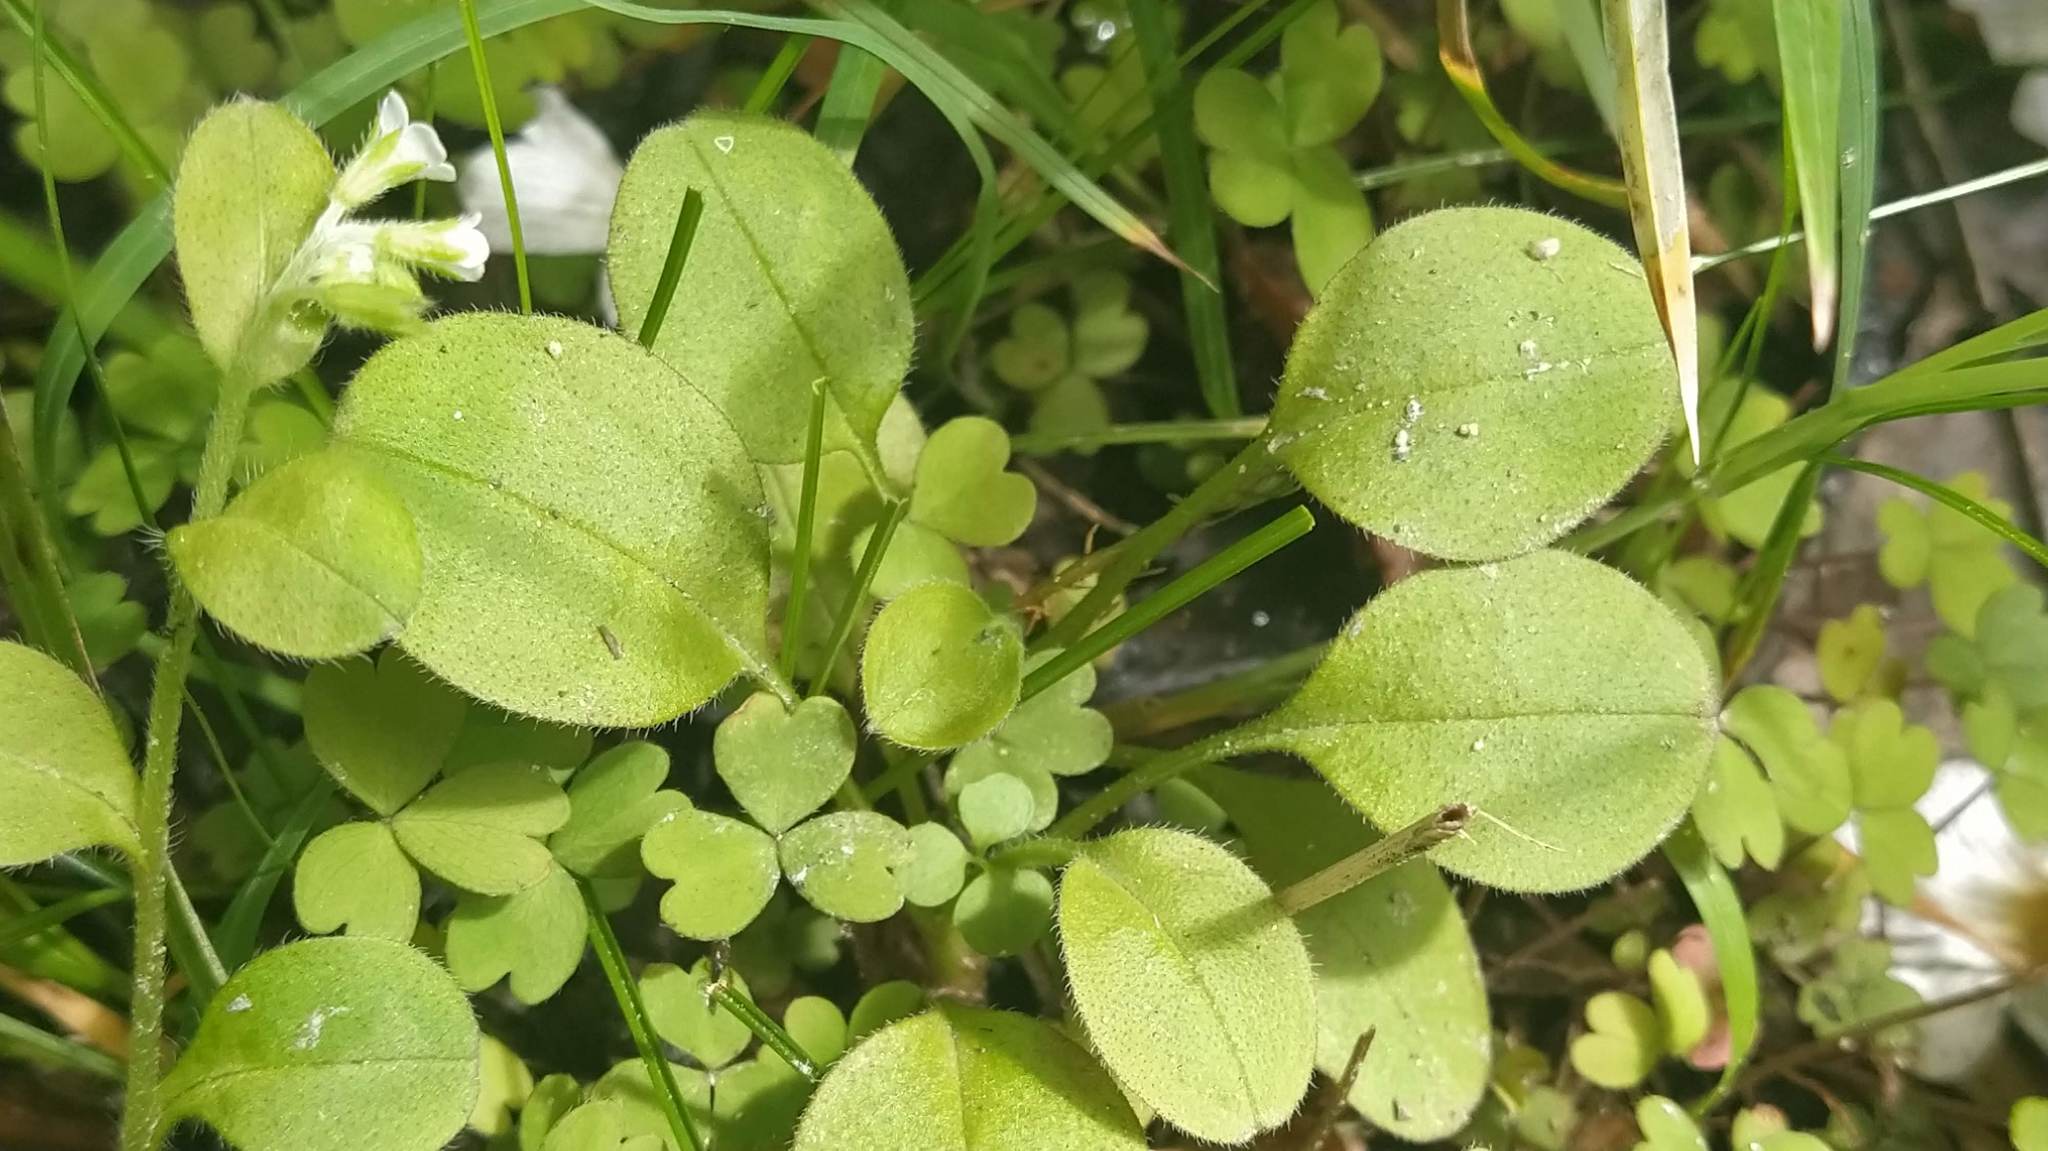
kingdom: Plantae
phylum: Tracheophyta
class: Magnoliopsida
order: Boraginales
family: Boraginaceae
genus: Myosotis
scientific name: Myosotis forsteri
